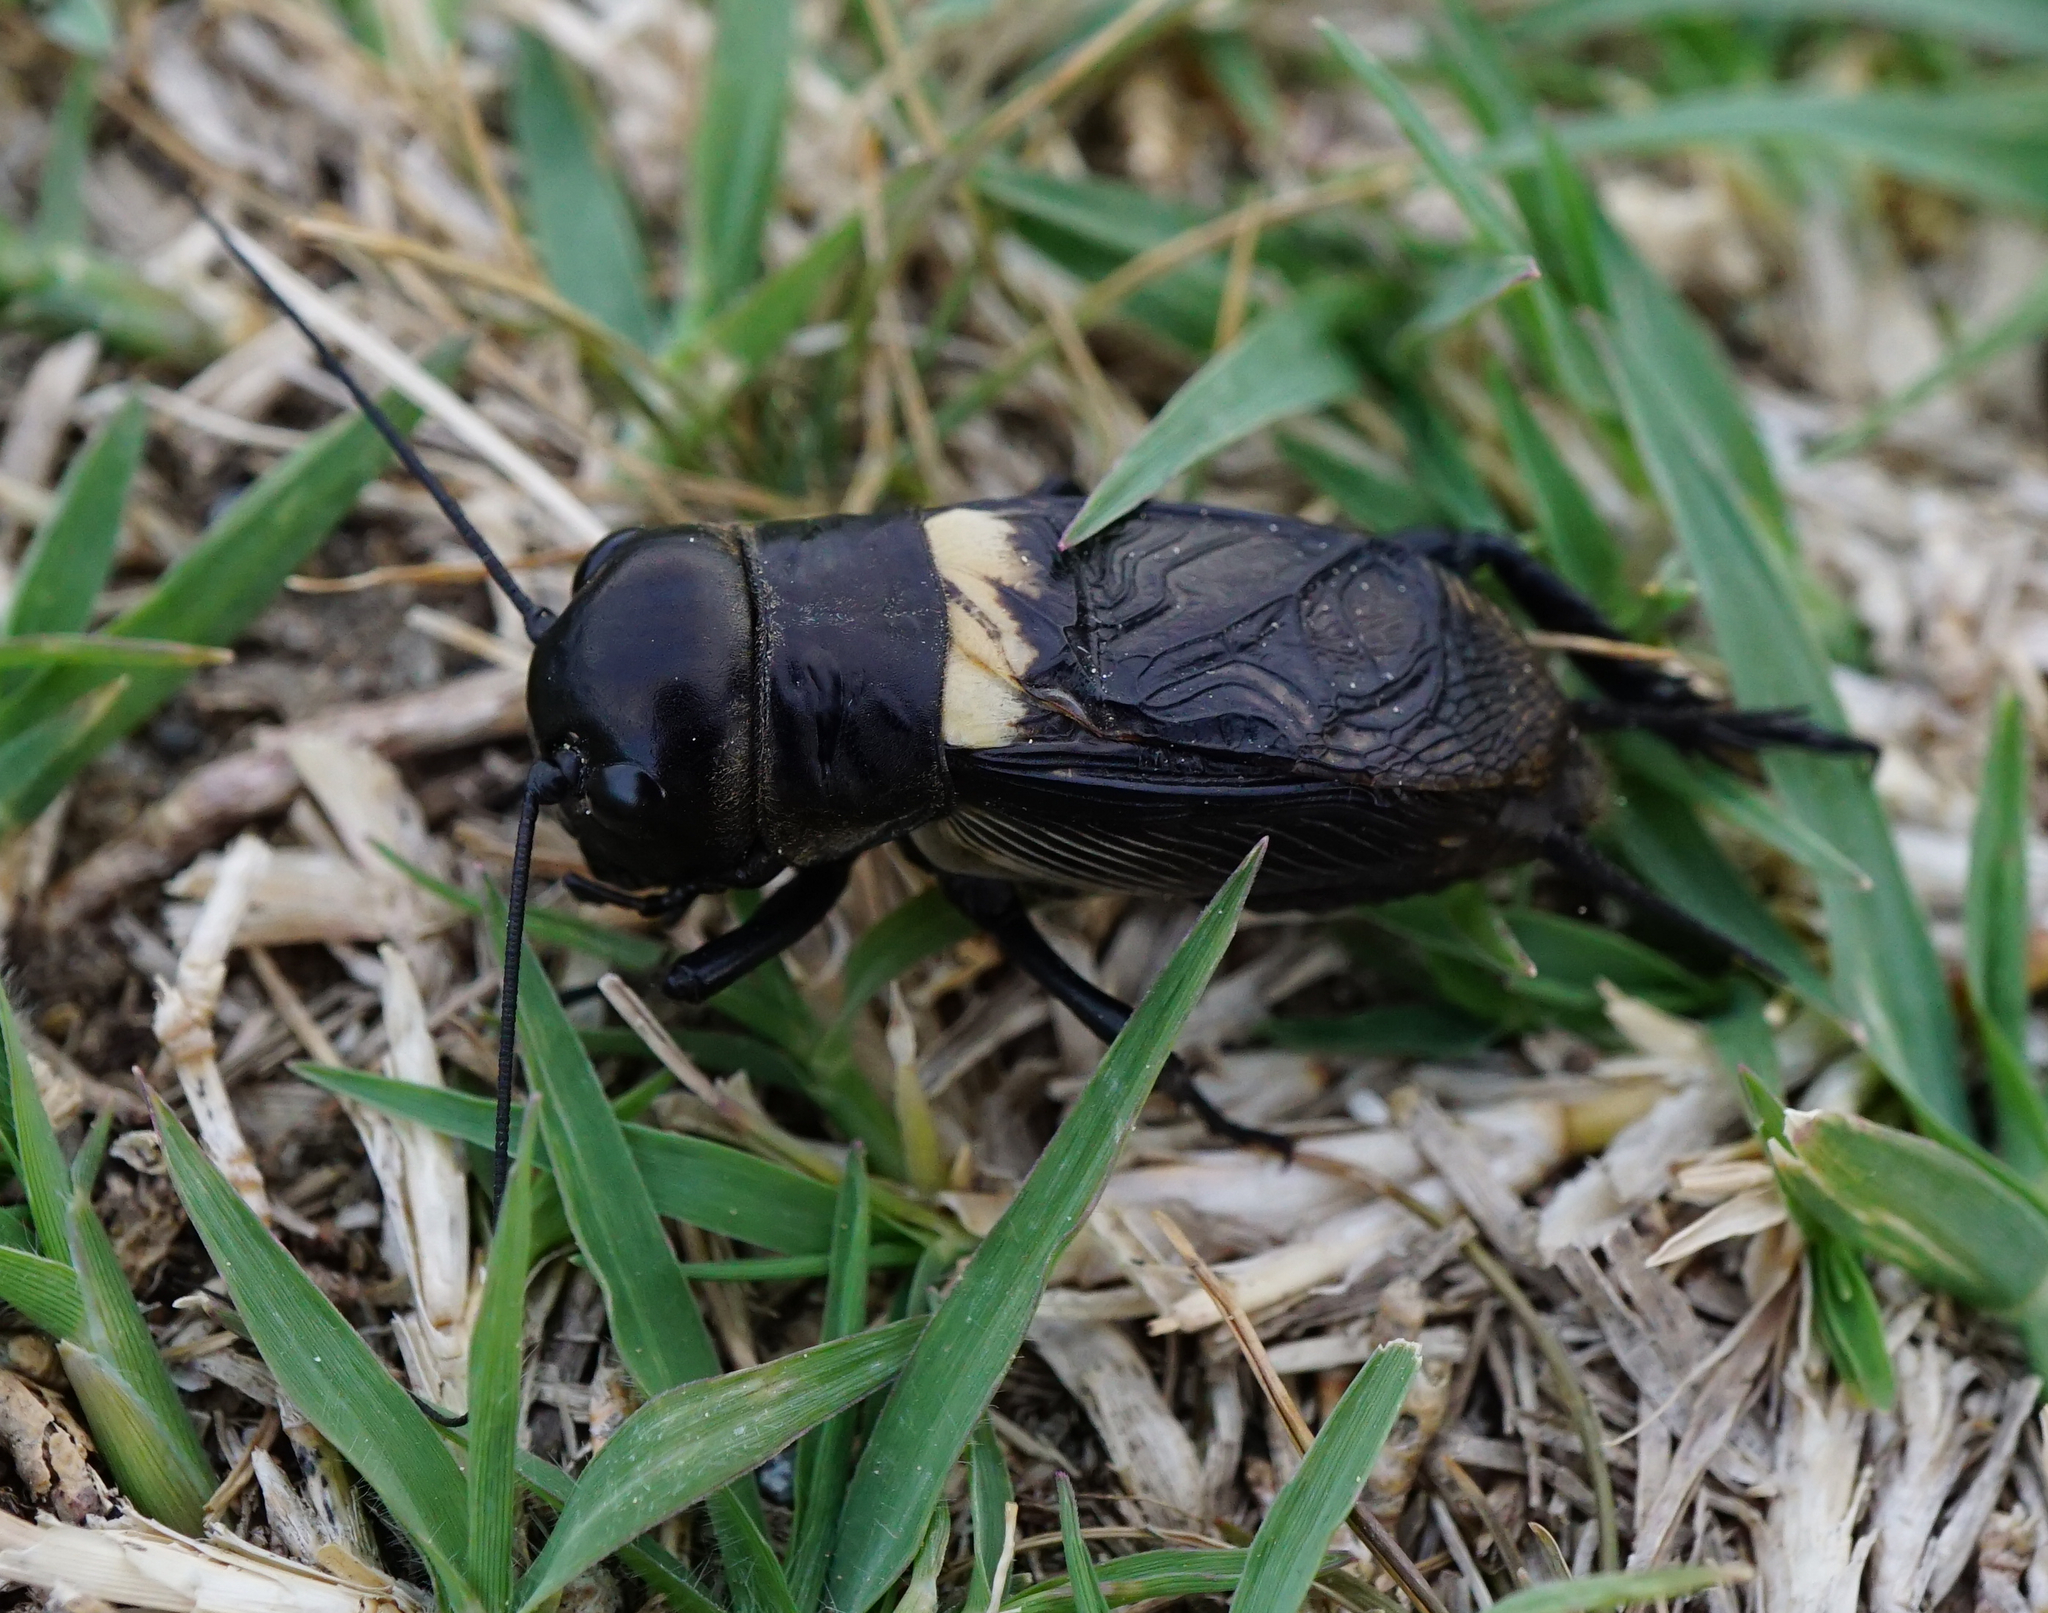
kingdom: Animalia
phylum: Arthropoda
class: Insecta
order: Orthoptera
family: Gryllidae
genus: Gryllus
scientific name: Gryllus campestris
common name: Field cricket
